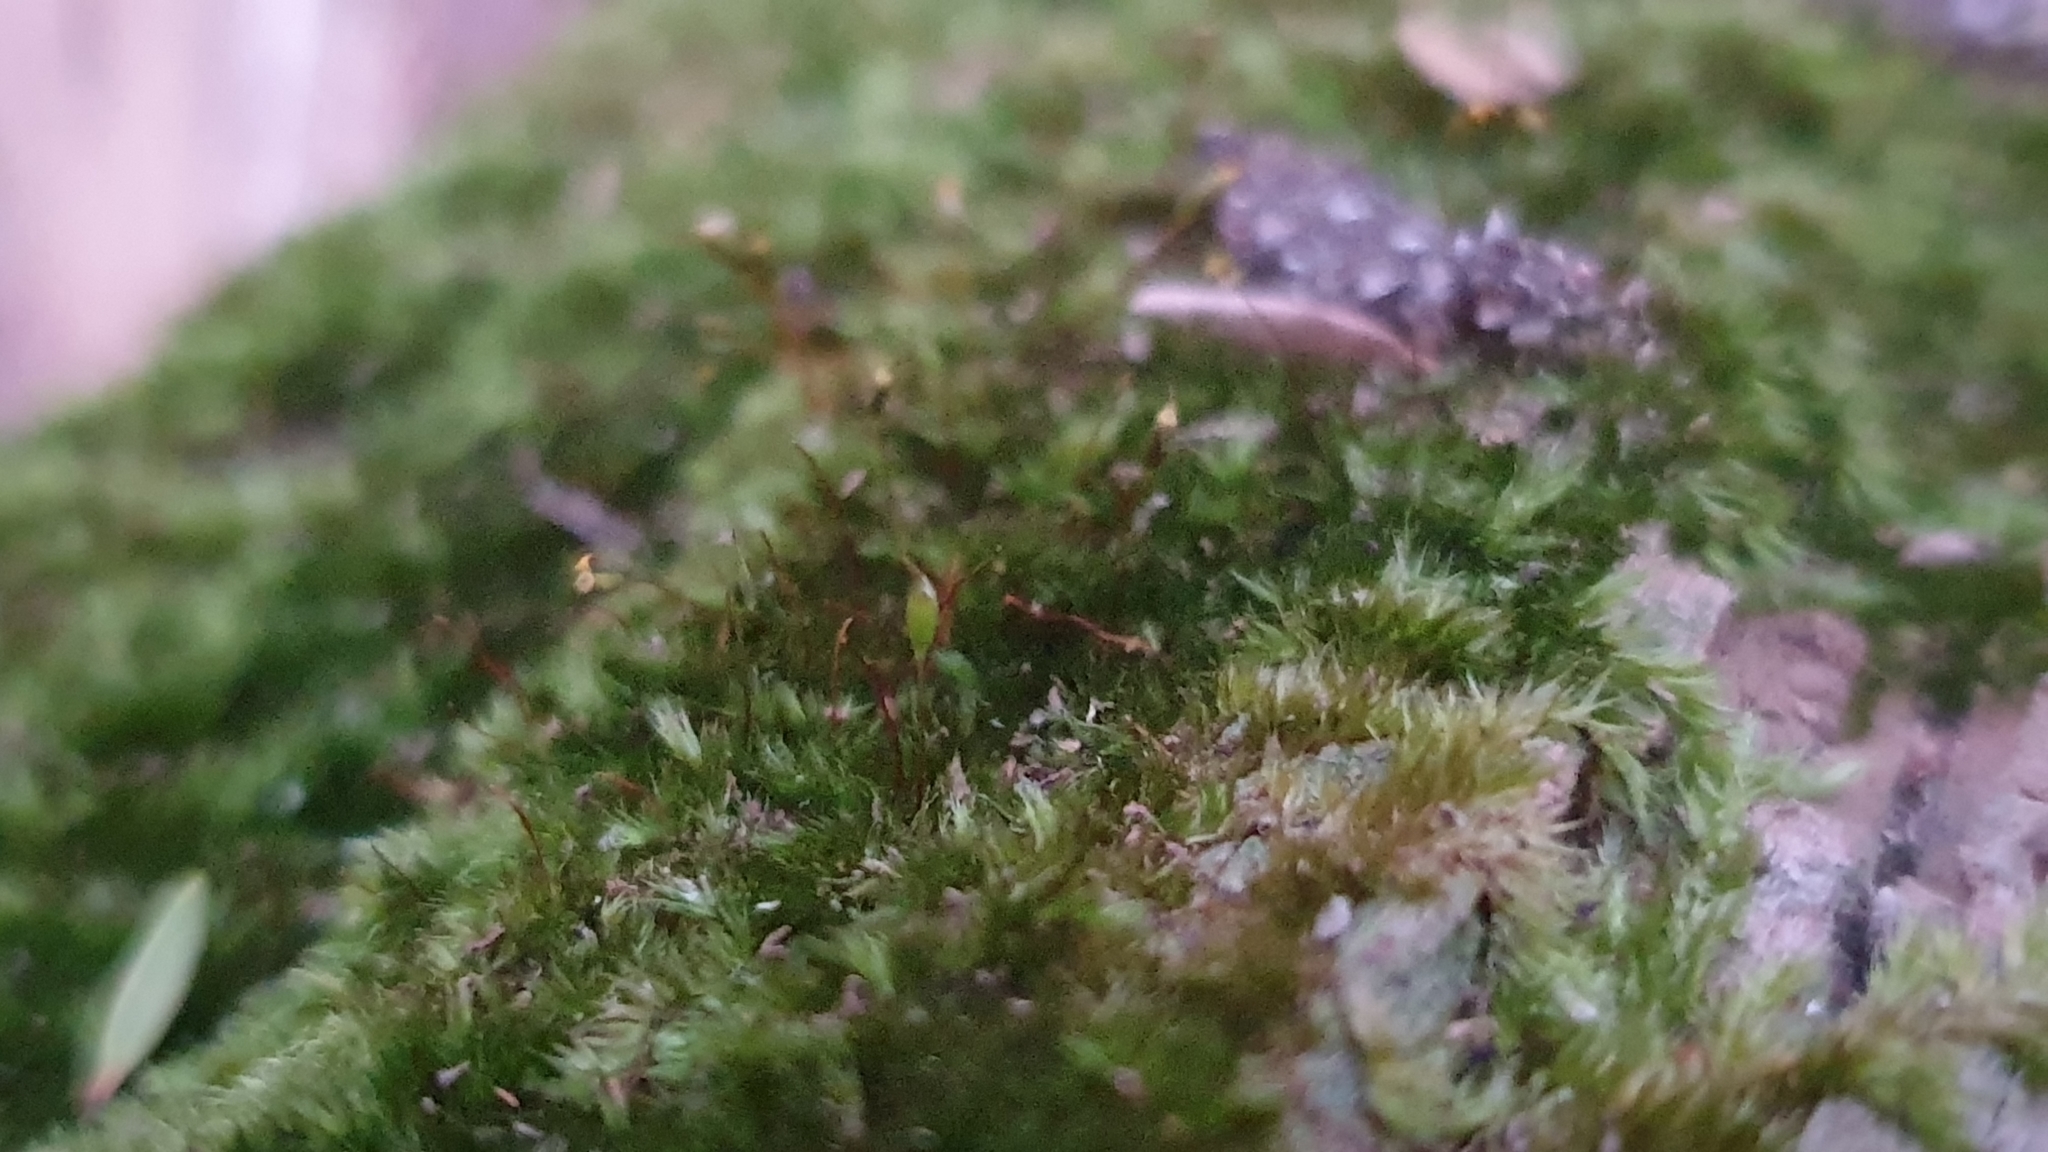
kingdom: Plantae
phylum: Bryophyta
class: Bryopsida
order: Hypnales
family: Sematophyllaceae
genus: Sematophyllum
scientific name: Sematophyllum homomallum
